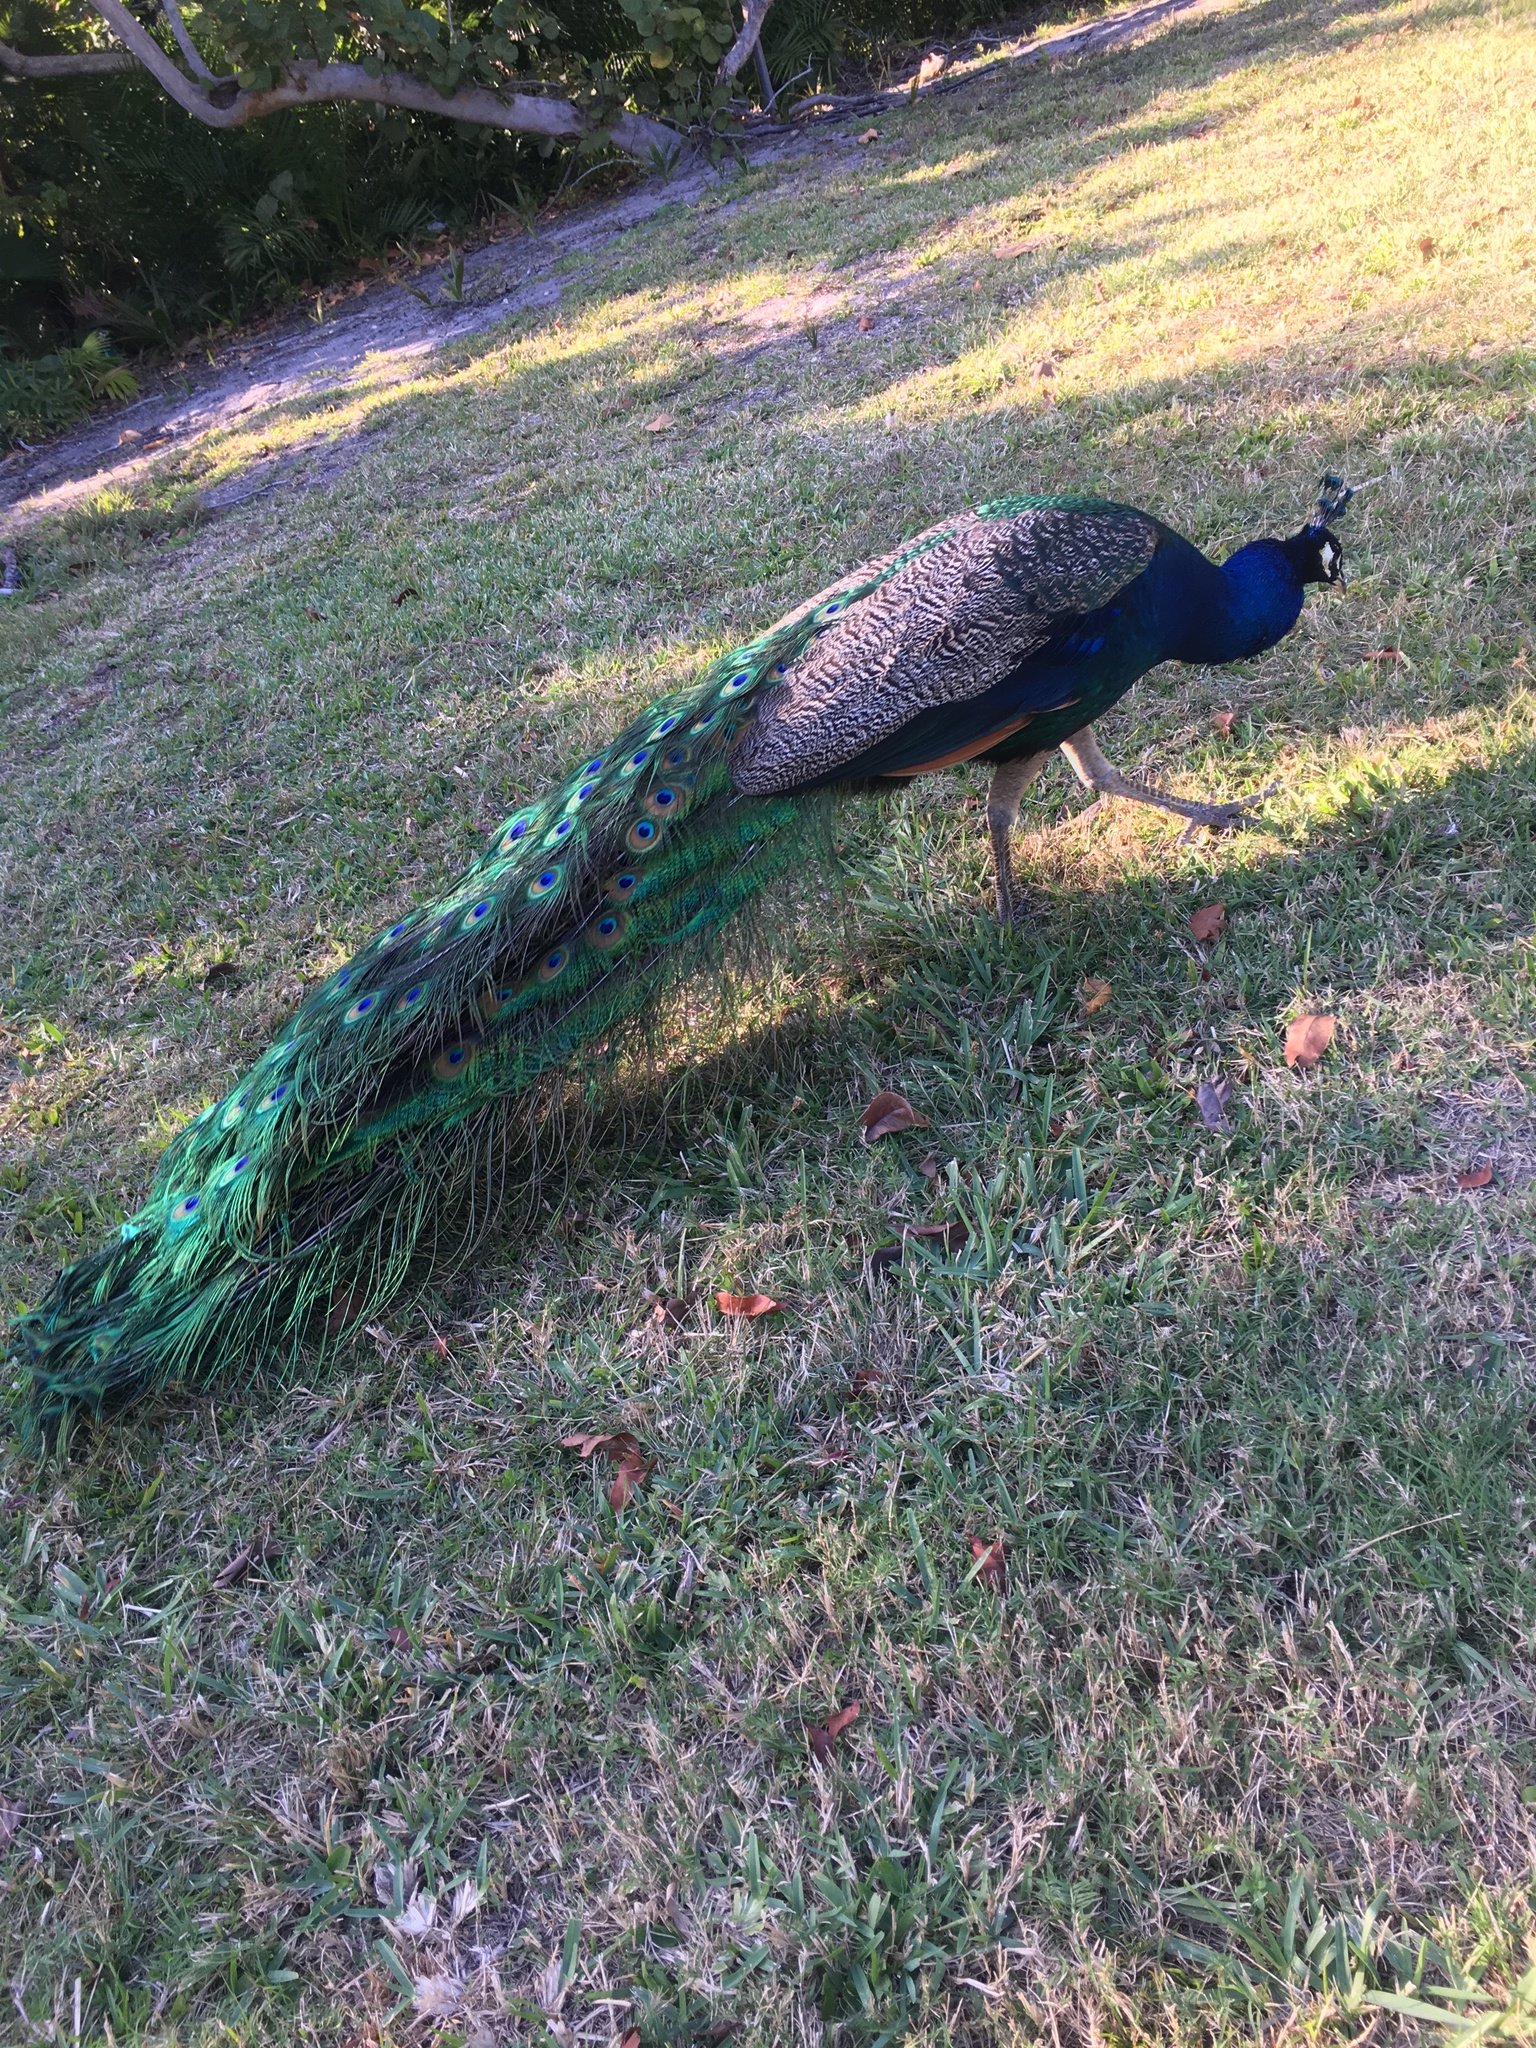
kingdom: Animalia
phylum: Chordata
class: Aves
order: Galliformes
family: Phasianidae
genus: Pavo
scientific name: Pavo cristatus
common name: Indian peafowl
